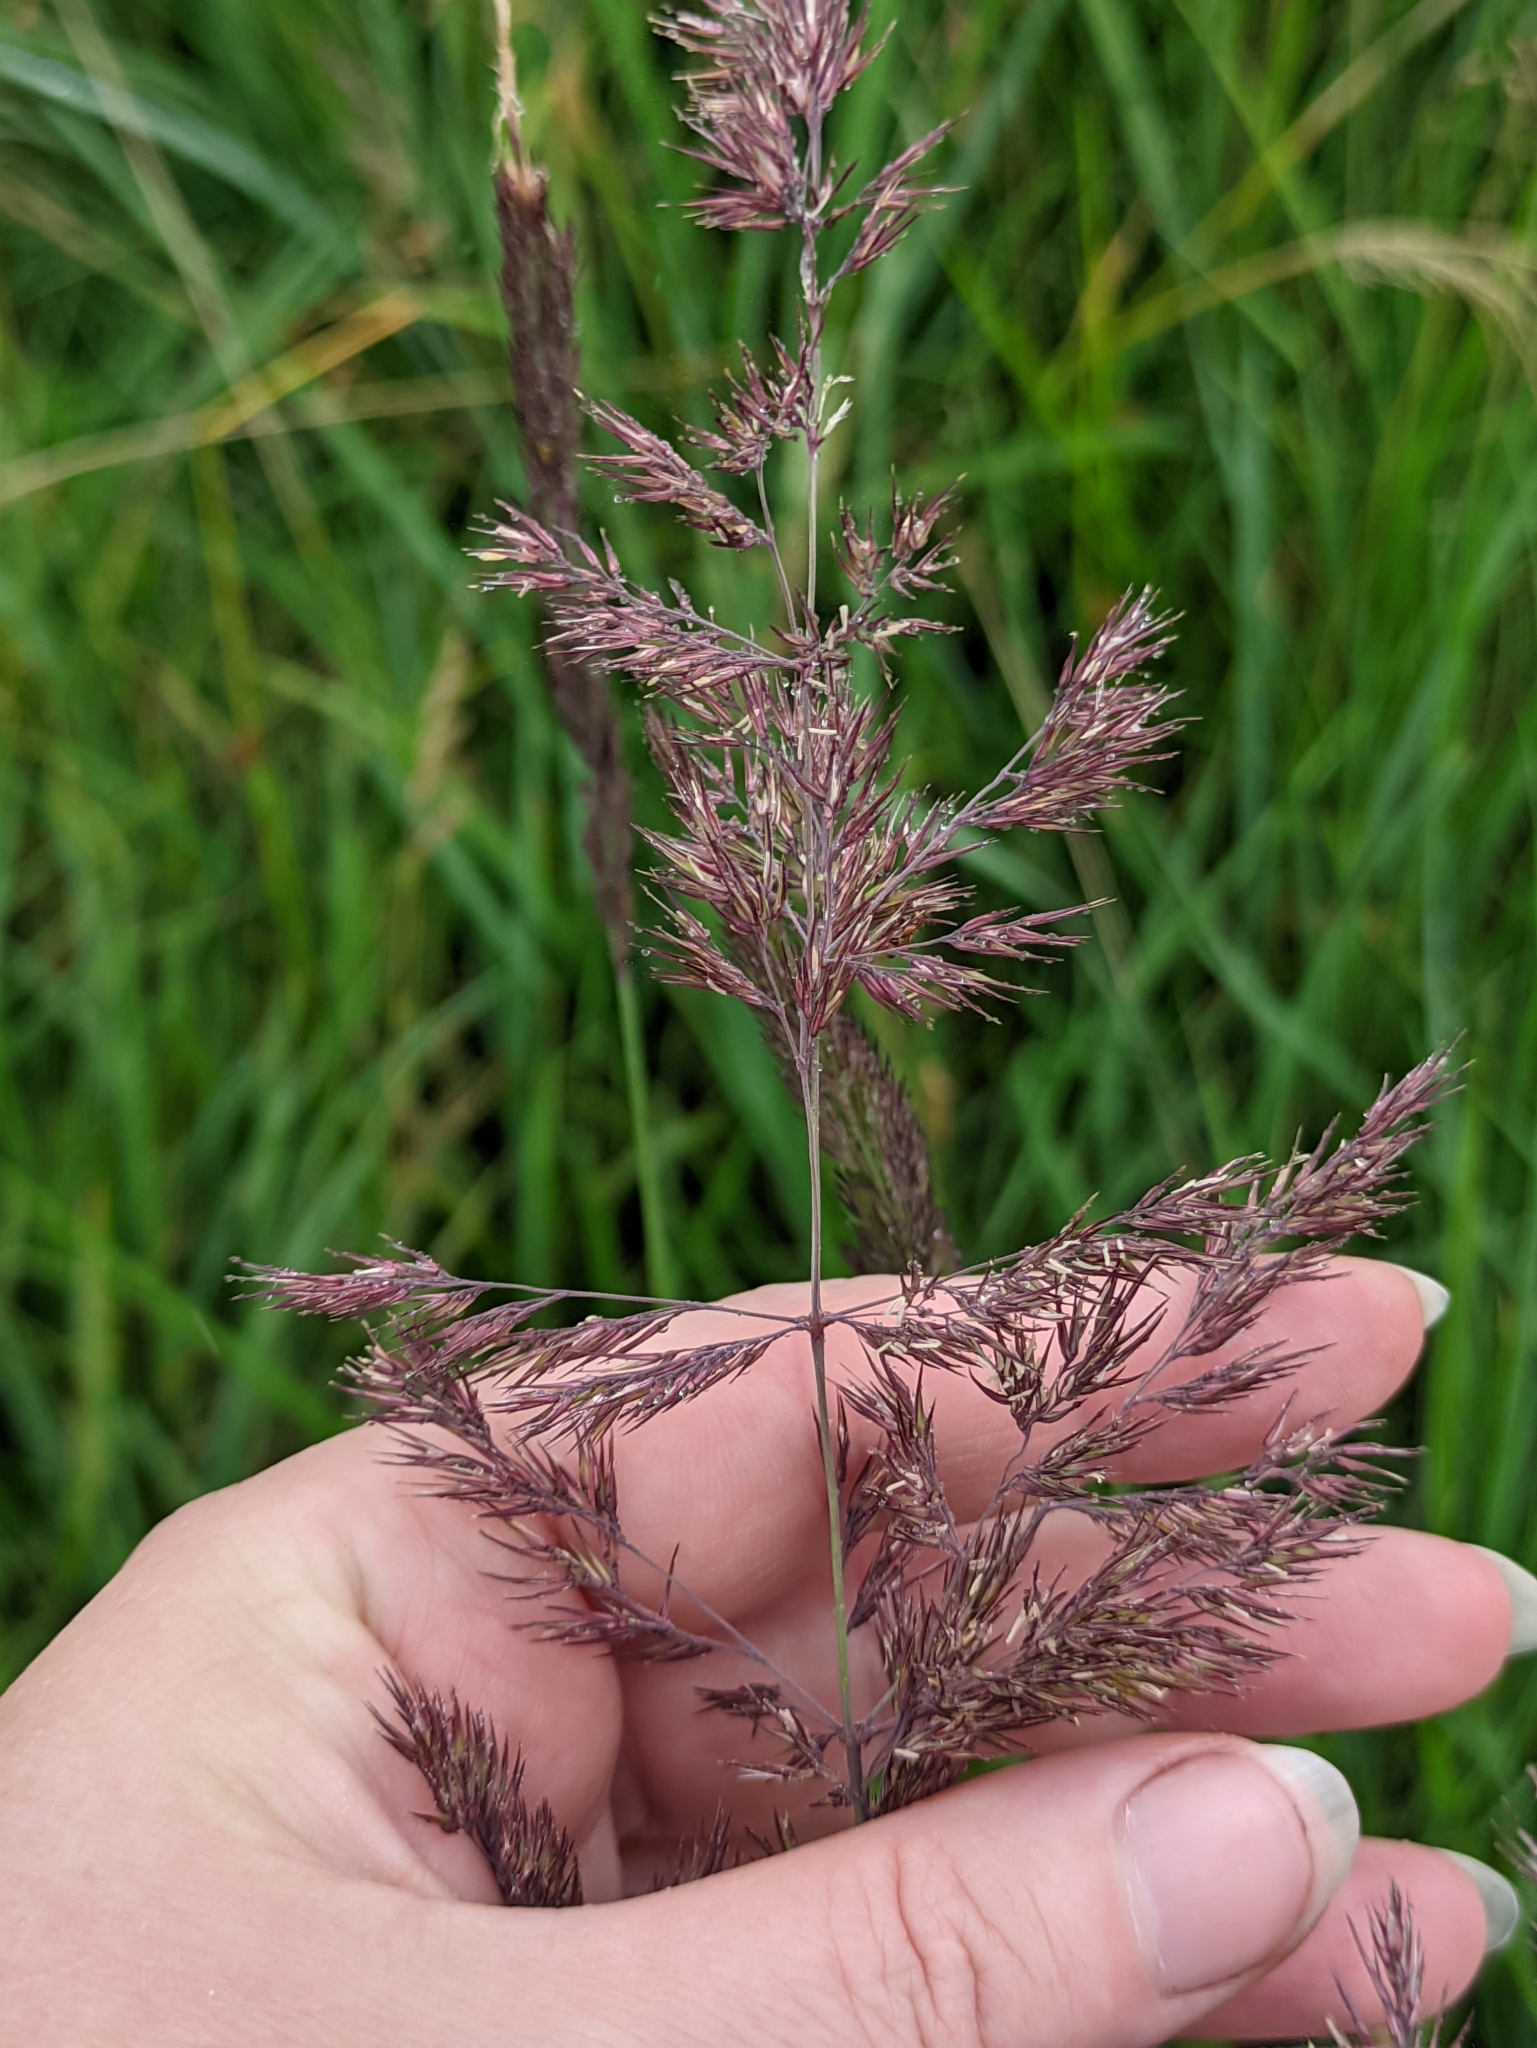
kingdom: Plantae
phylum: Tracheophyta
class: Liliopsida
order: Poales
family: Poaceae
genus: Calamagrostis
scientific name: Calamagrostis epigejos
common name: Wood small-reed
